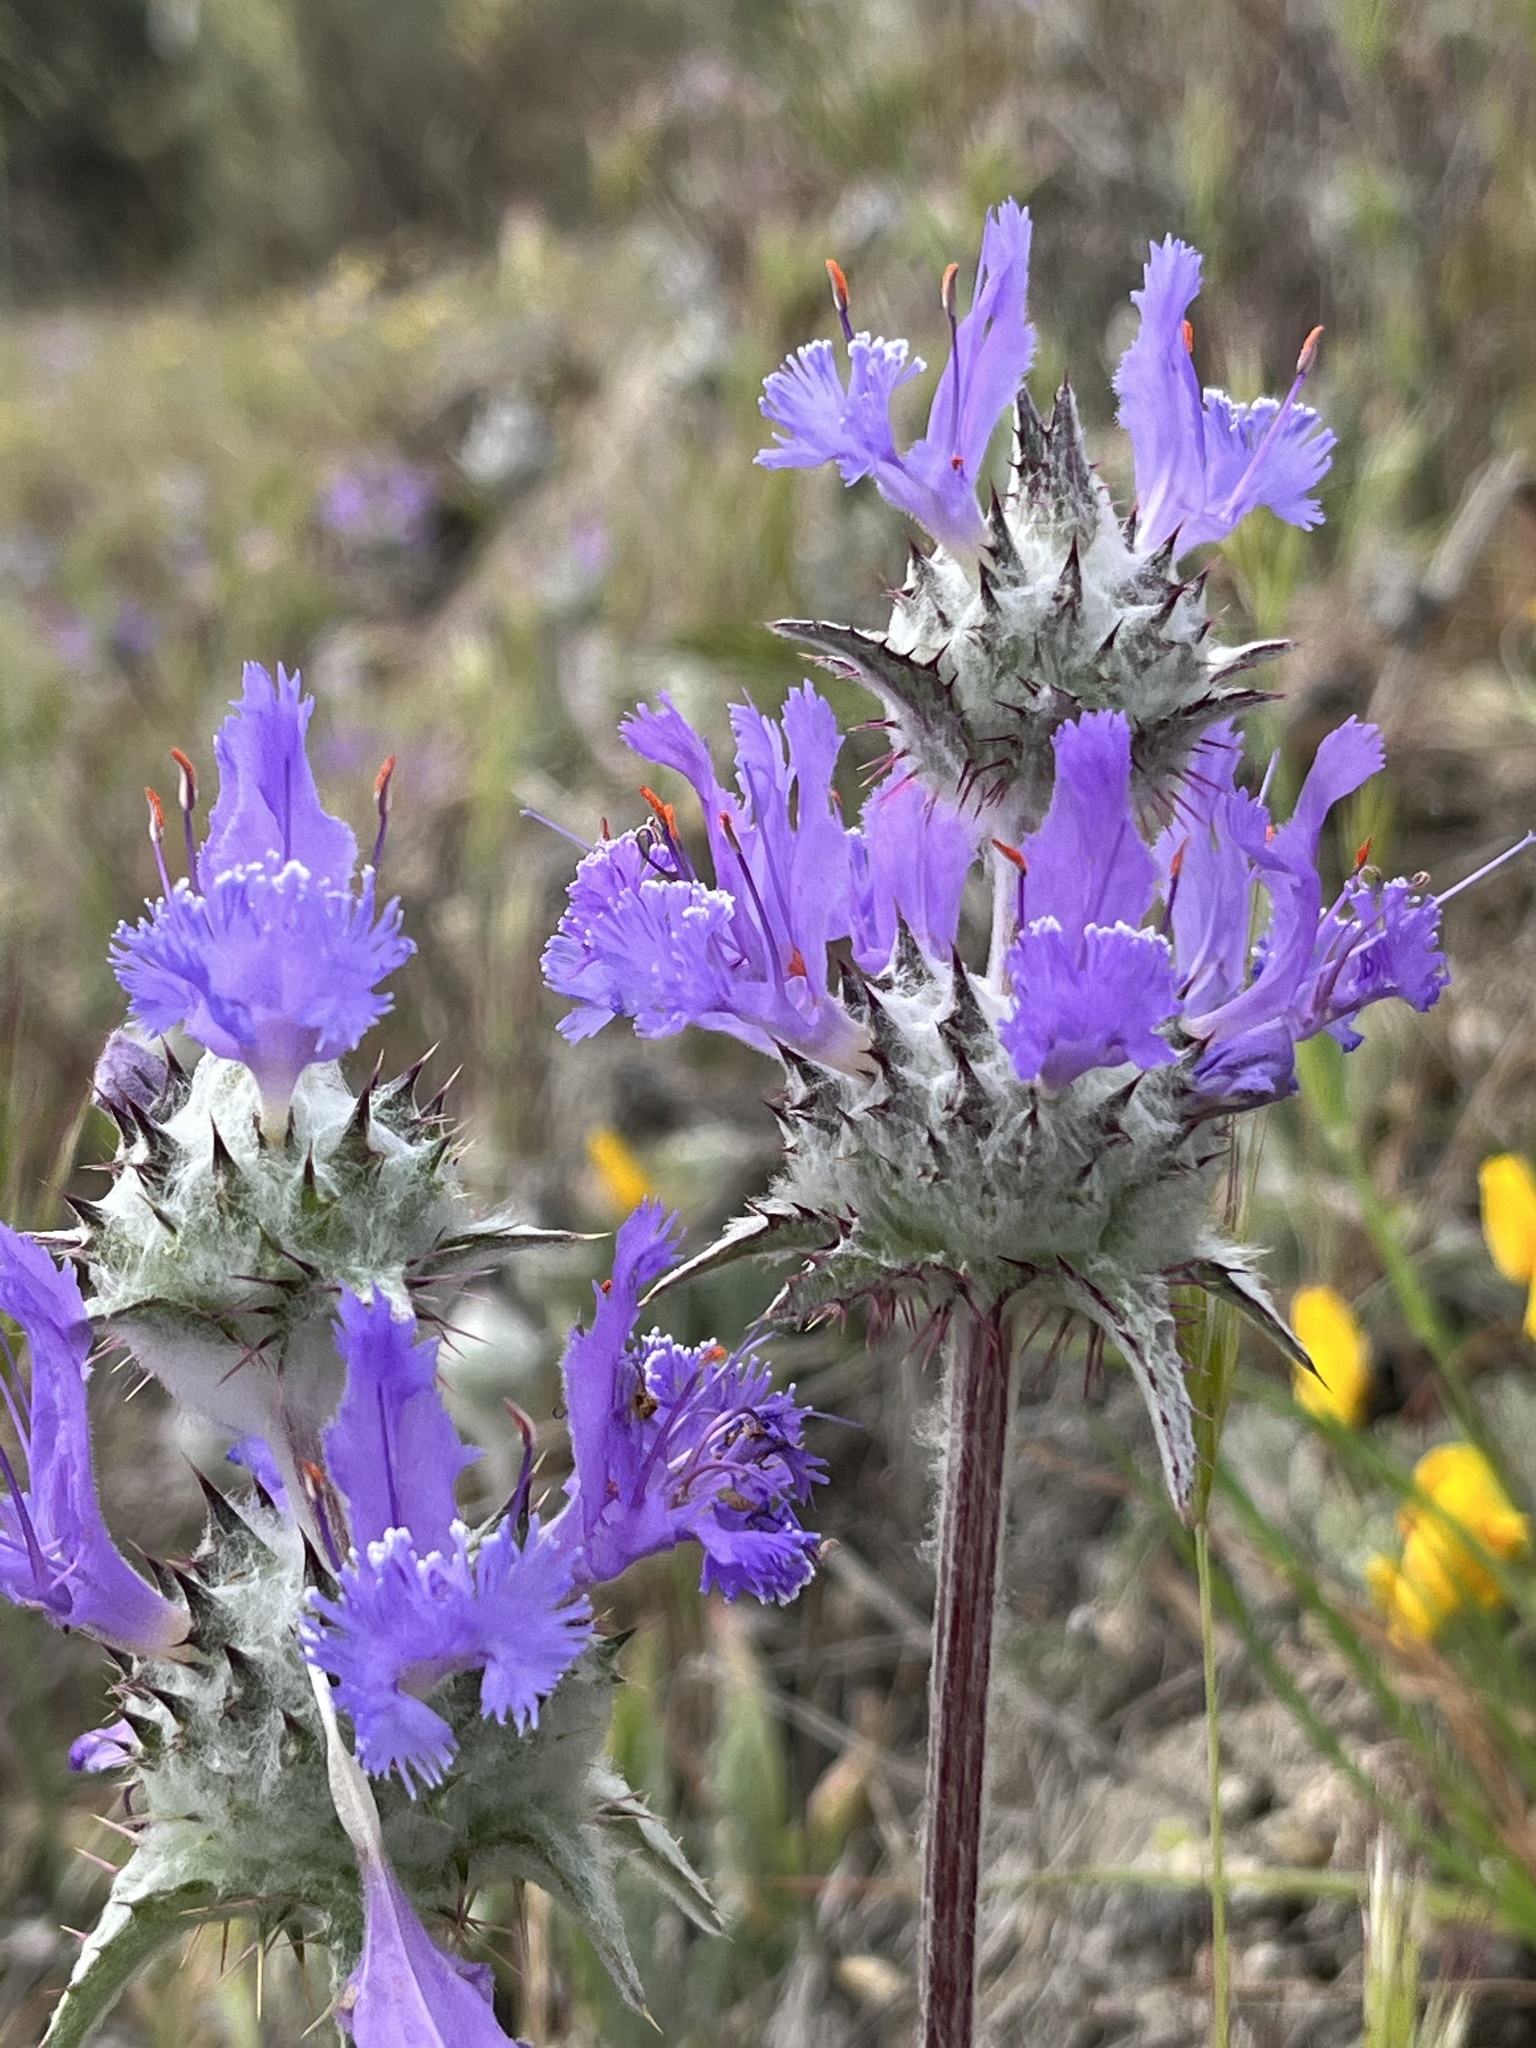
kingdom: Plantae
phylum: Tracheophyta
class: Magnoliopsida
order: Lamiales
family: Lamiaceae
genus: Salvia
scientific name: Salvia carduacea
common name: Thistle sage
